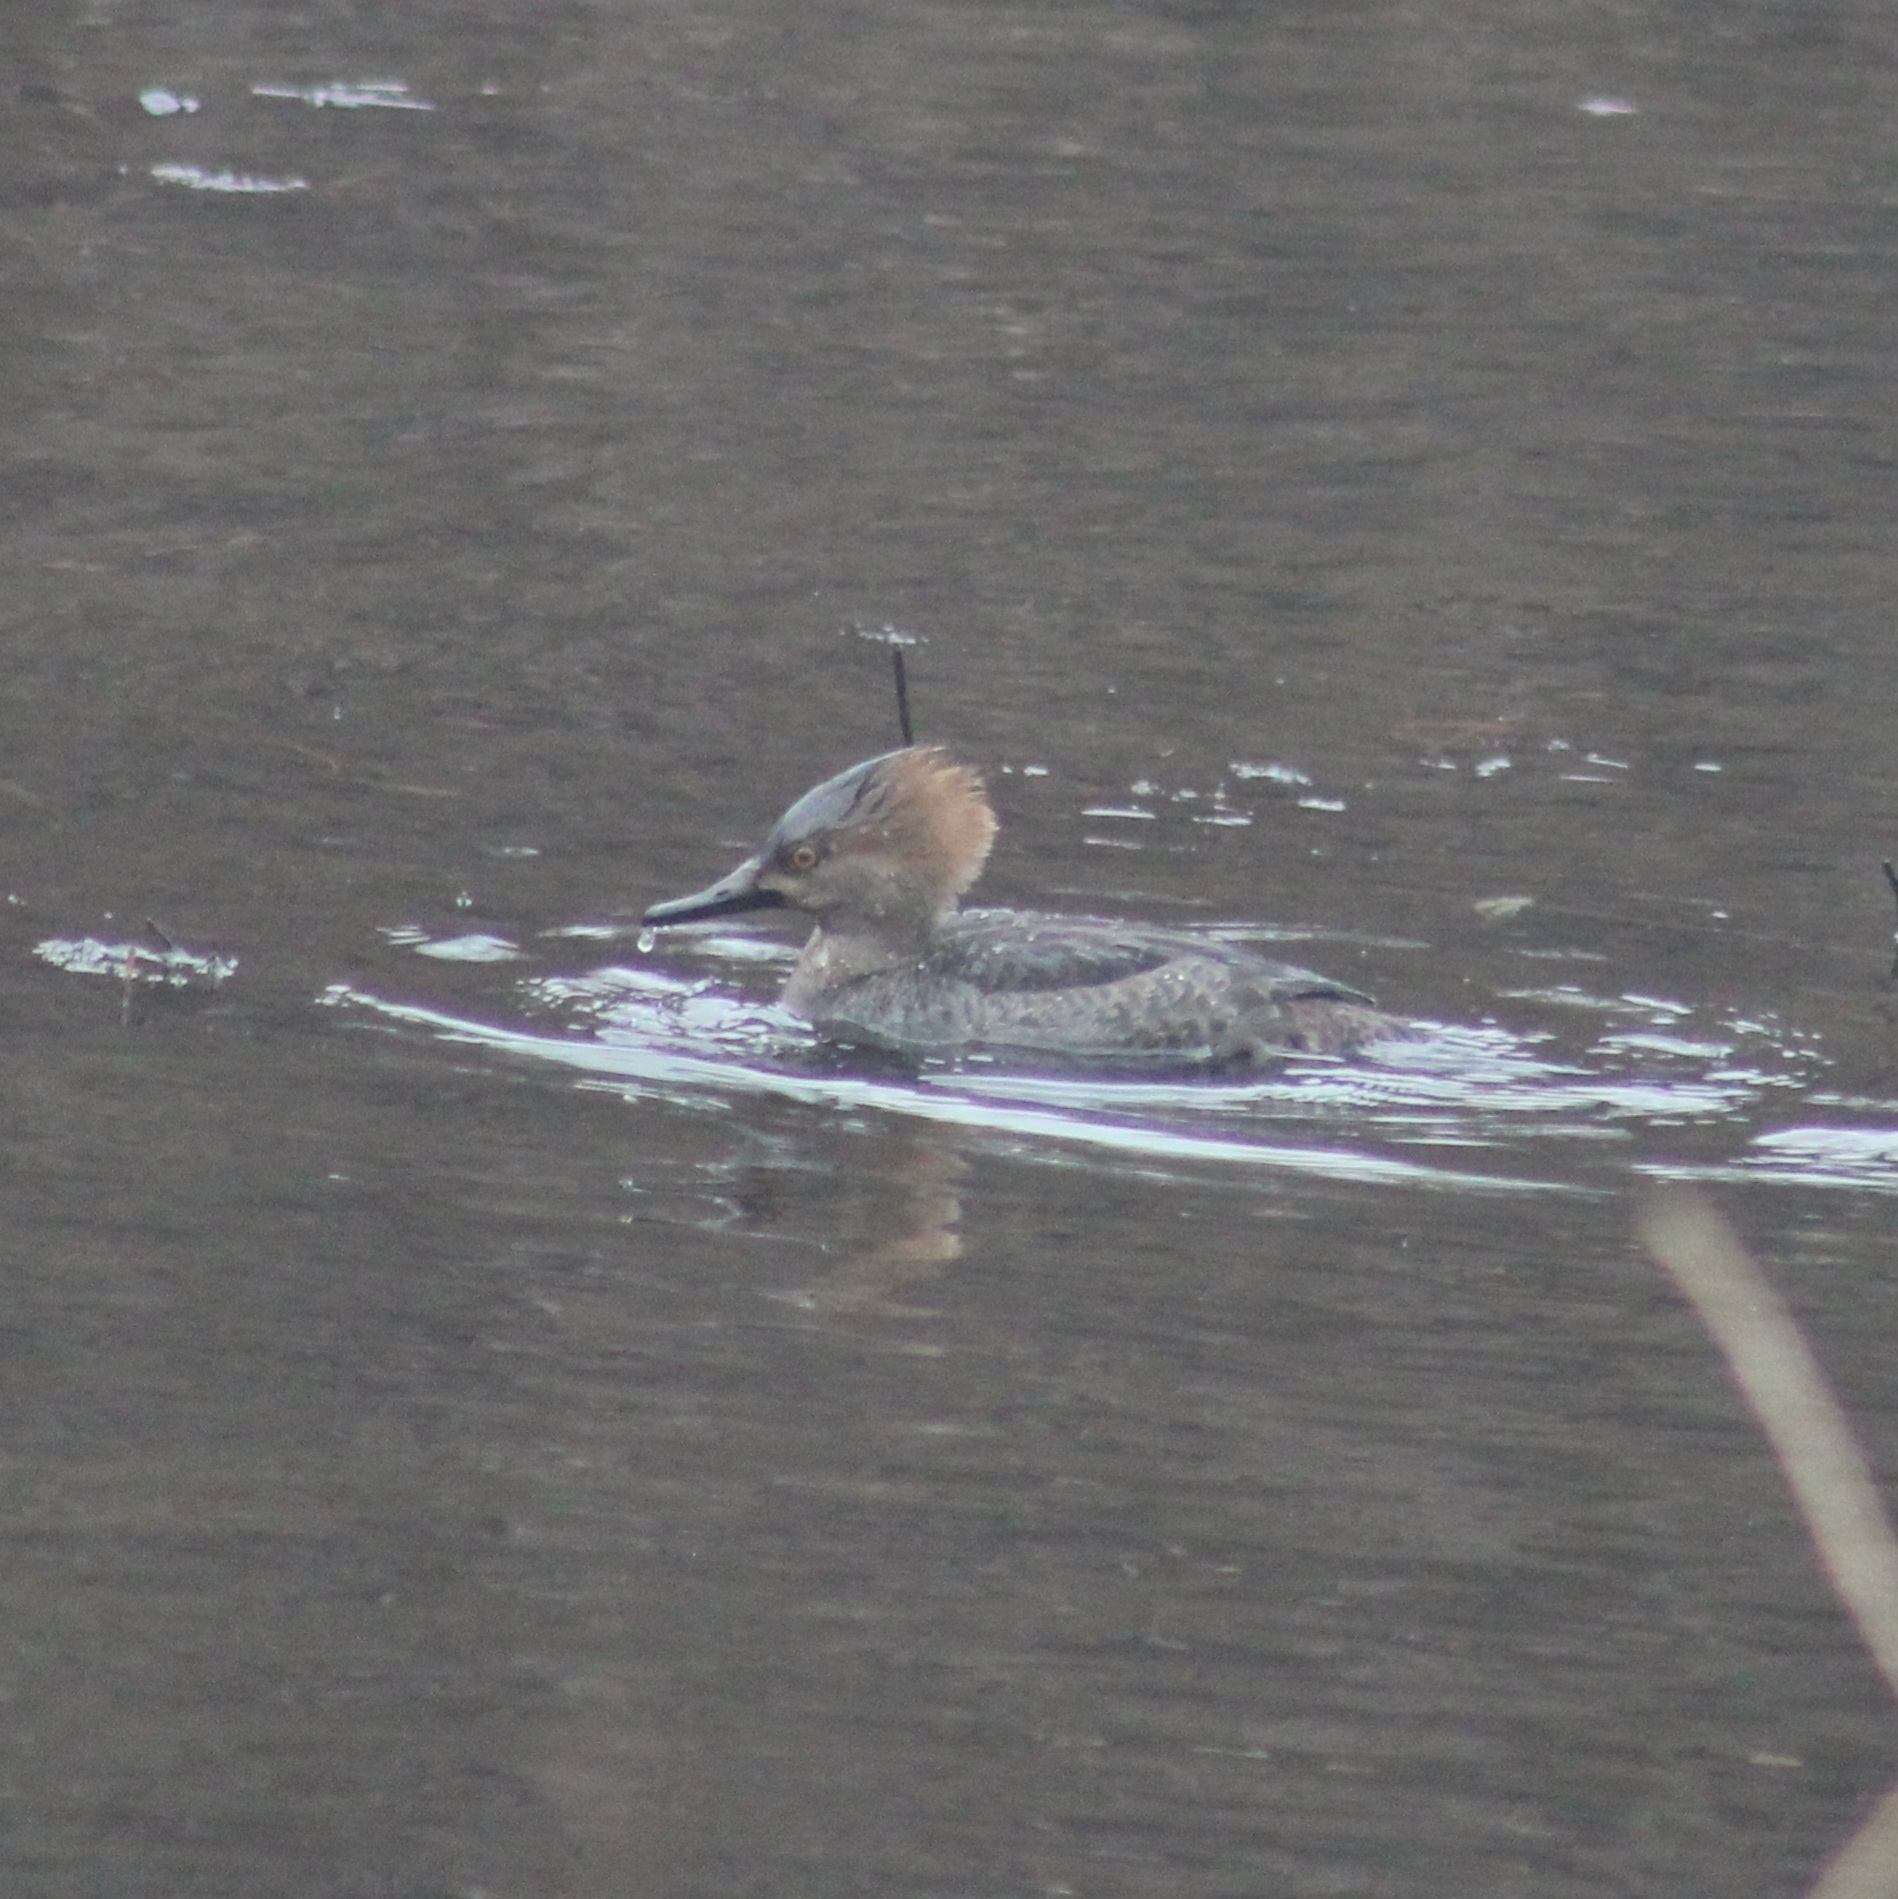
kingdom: Animalia
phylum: Chordata
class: Aves
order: Anseriformes
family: Anatidae
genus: Lophodytes
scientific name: Lophodytes cucullatus
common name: Hooded merganser
